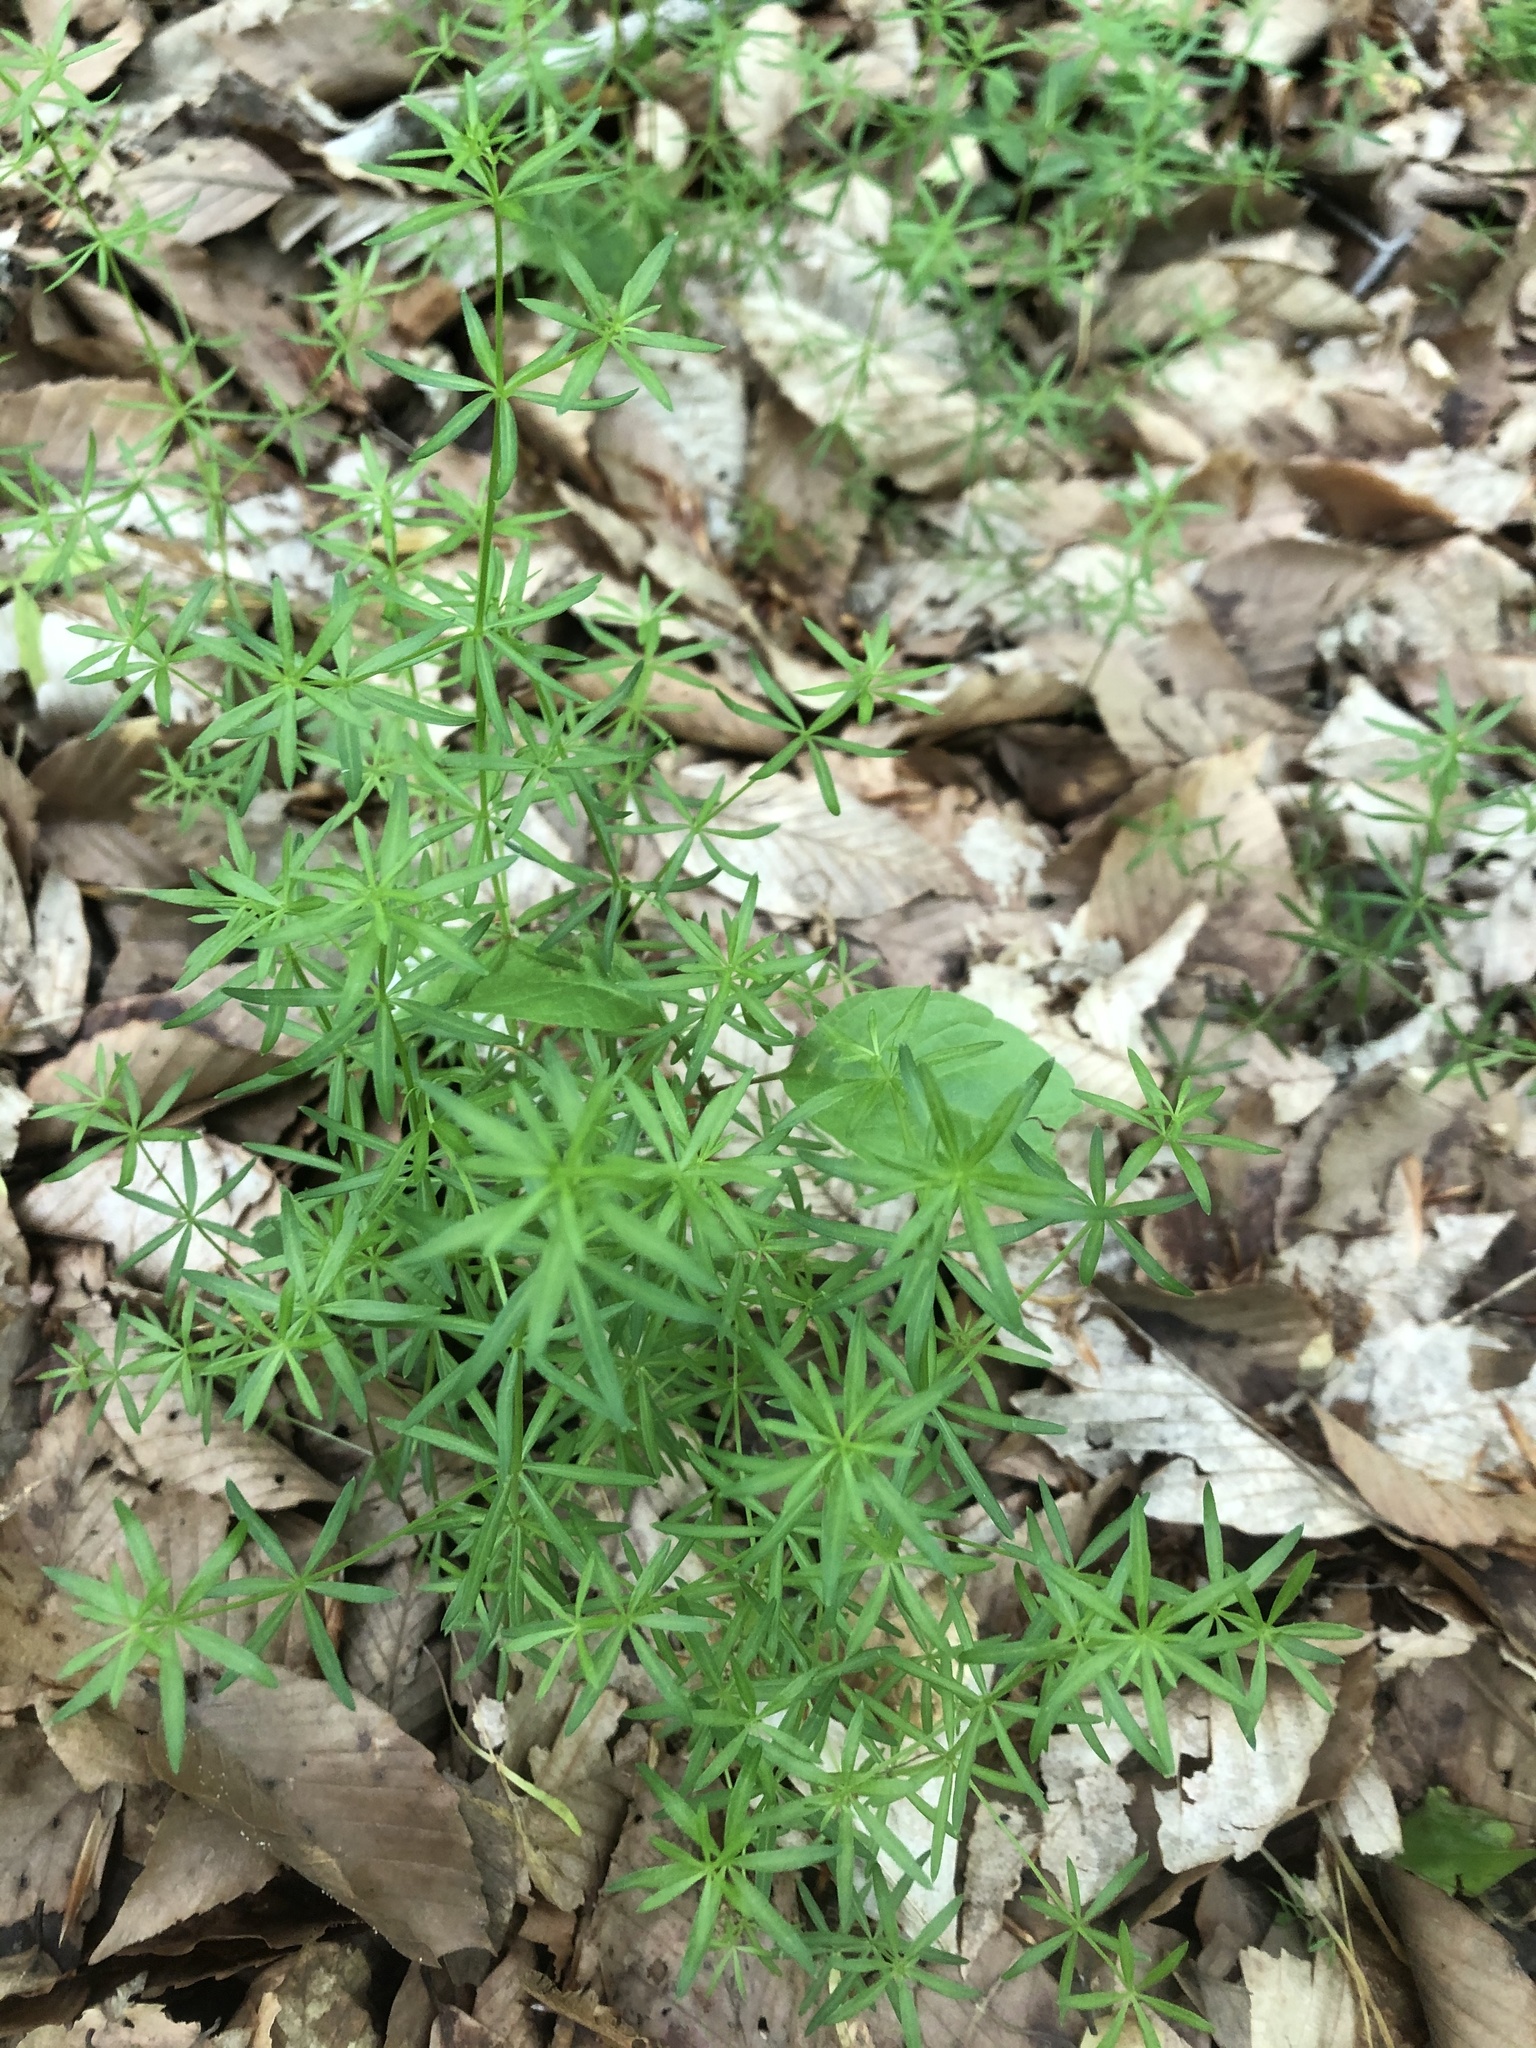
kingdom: Plantae
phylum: Tracheophyta
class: Magnoliopsida
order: Gentianales
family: Rubiaceae
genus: Galium
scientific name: Galium concinnum
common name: Shining bedstraw
